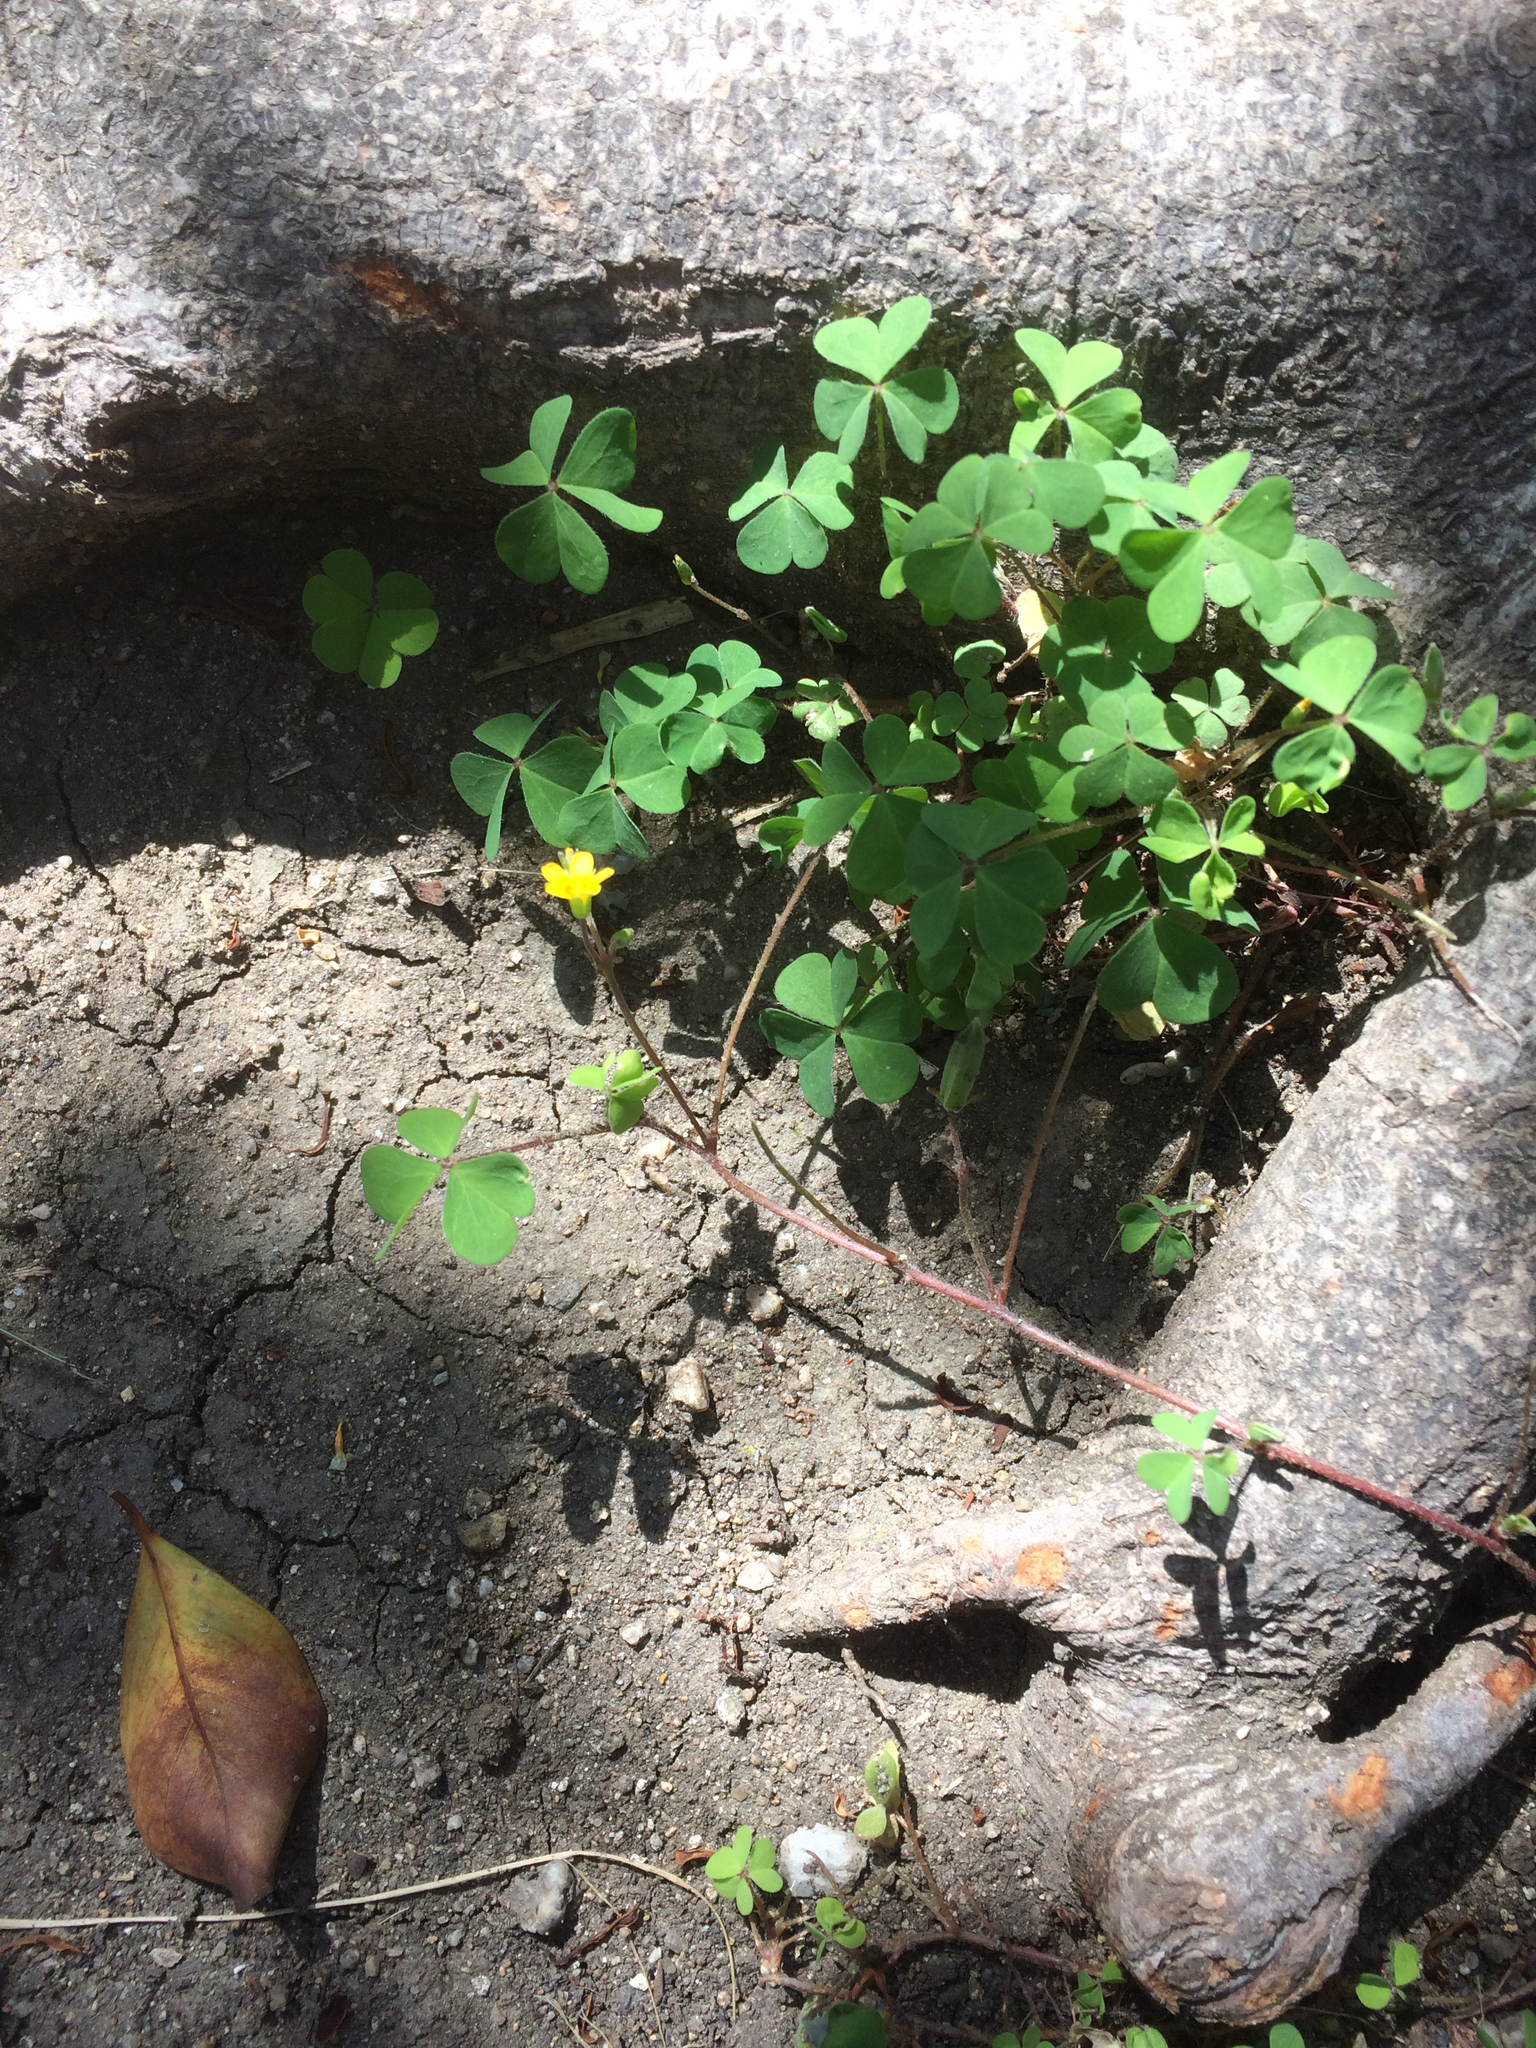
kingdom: Plantae
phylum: Tracheophyta
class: Magnoliopsida
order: Oxalidales
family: Oxalidaceae
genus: Oxalis
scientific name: Oxalis corniculata
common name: Procumbent yellow-sorrel
